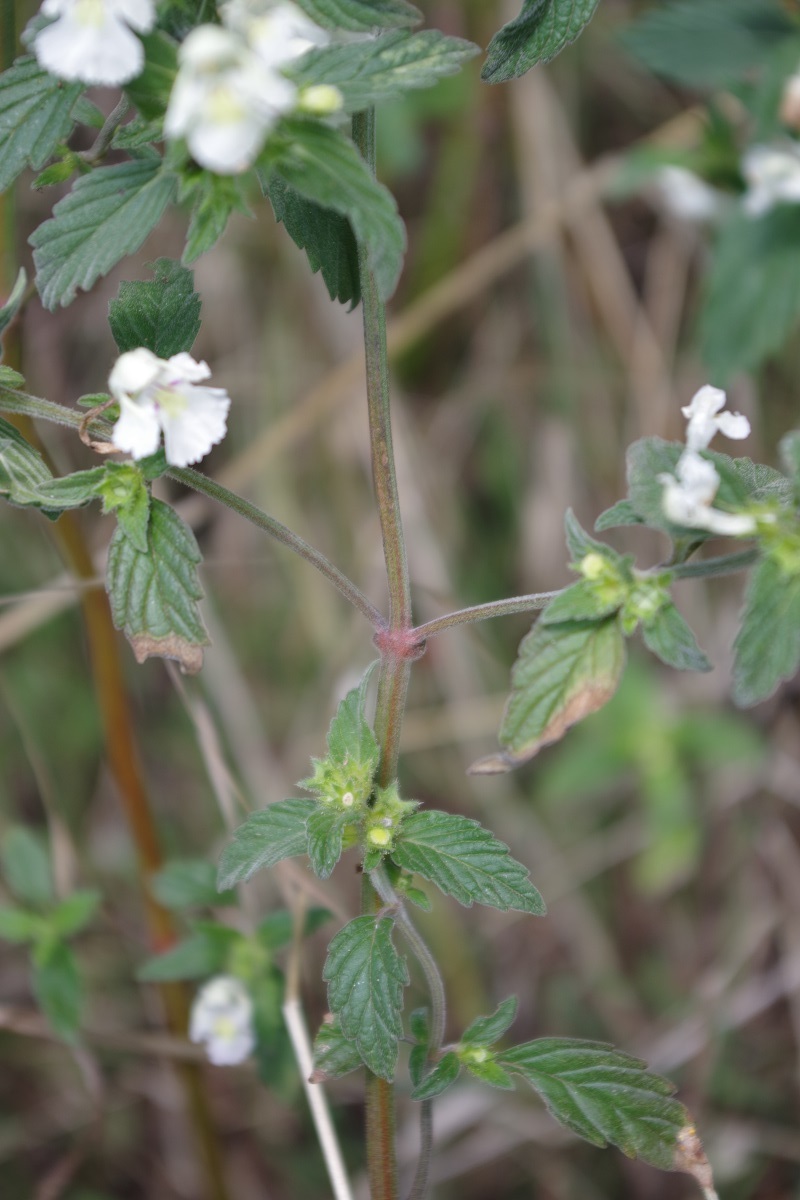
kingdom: Plantae
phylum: Tracheophyta
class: Magnoliopsida
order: Lamiales
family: Lamiaceae
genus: Galeopsis
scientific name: Galeopsis segetum
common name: Downy hemp-nettle
